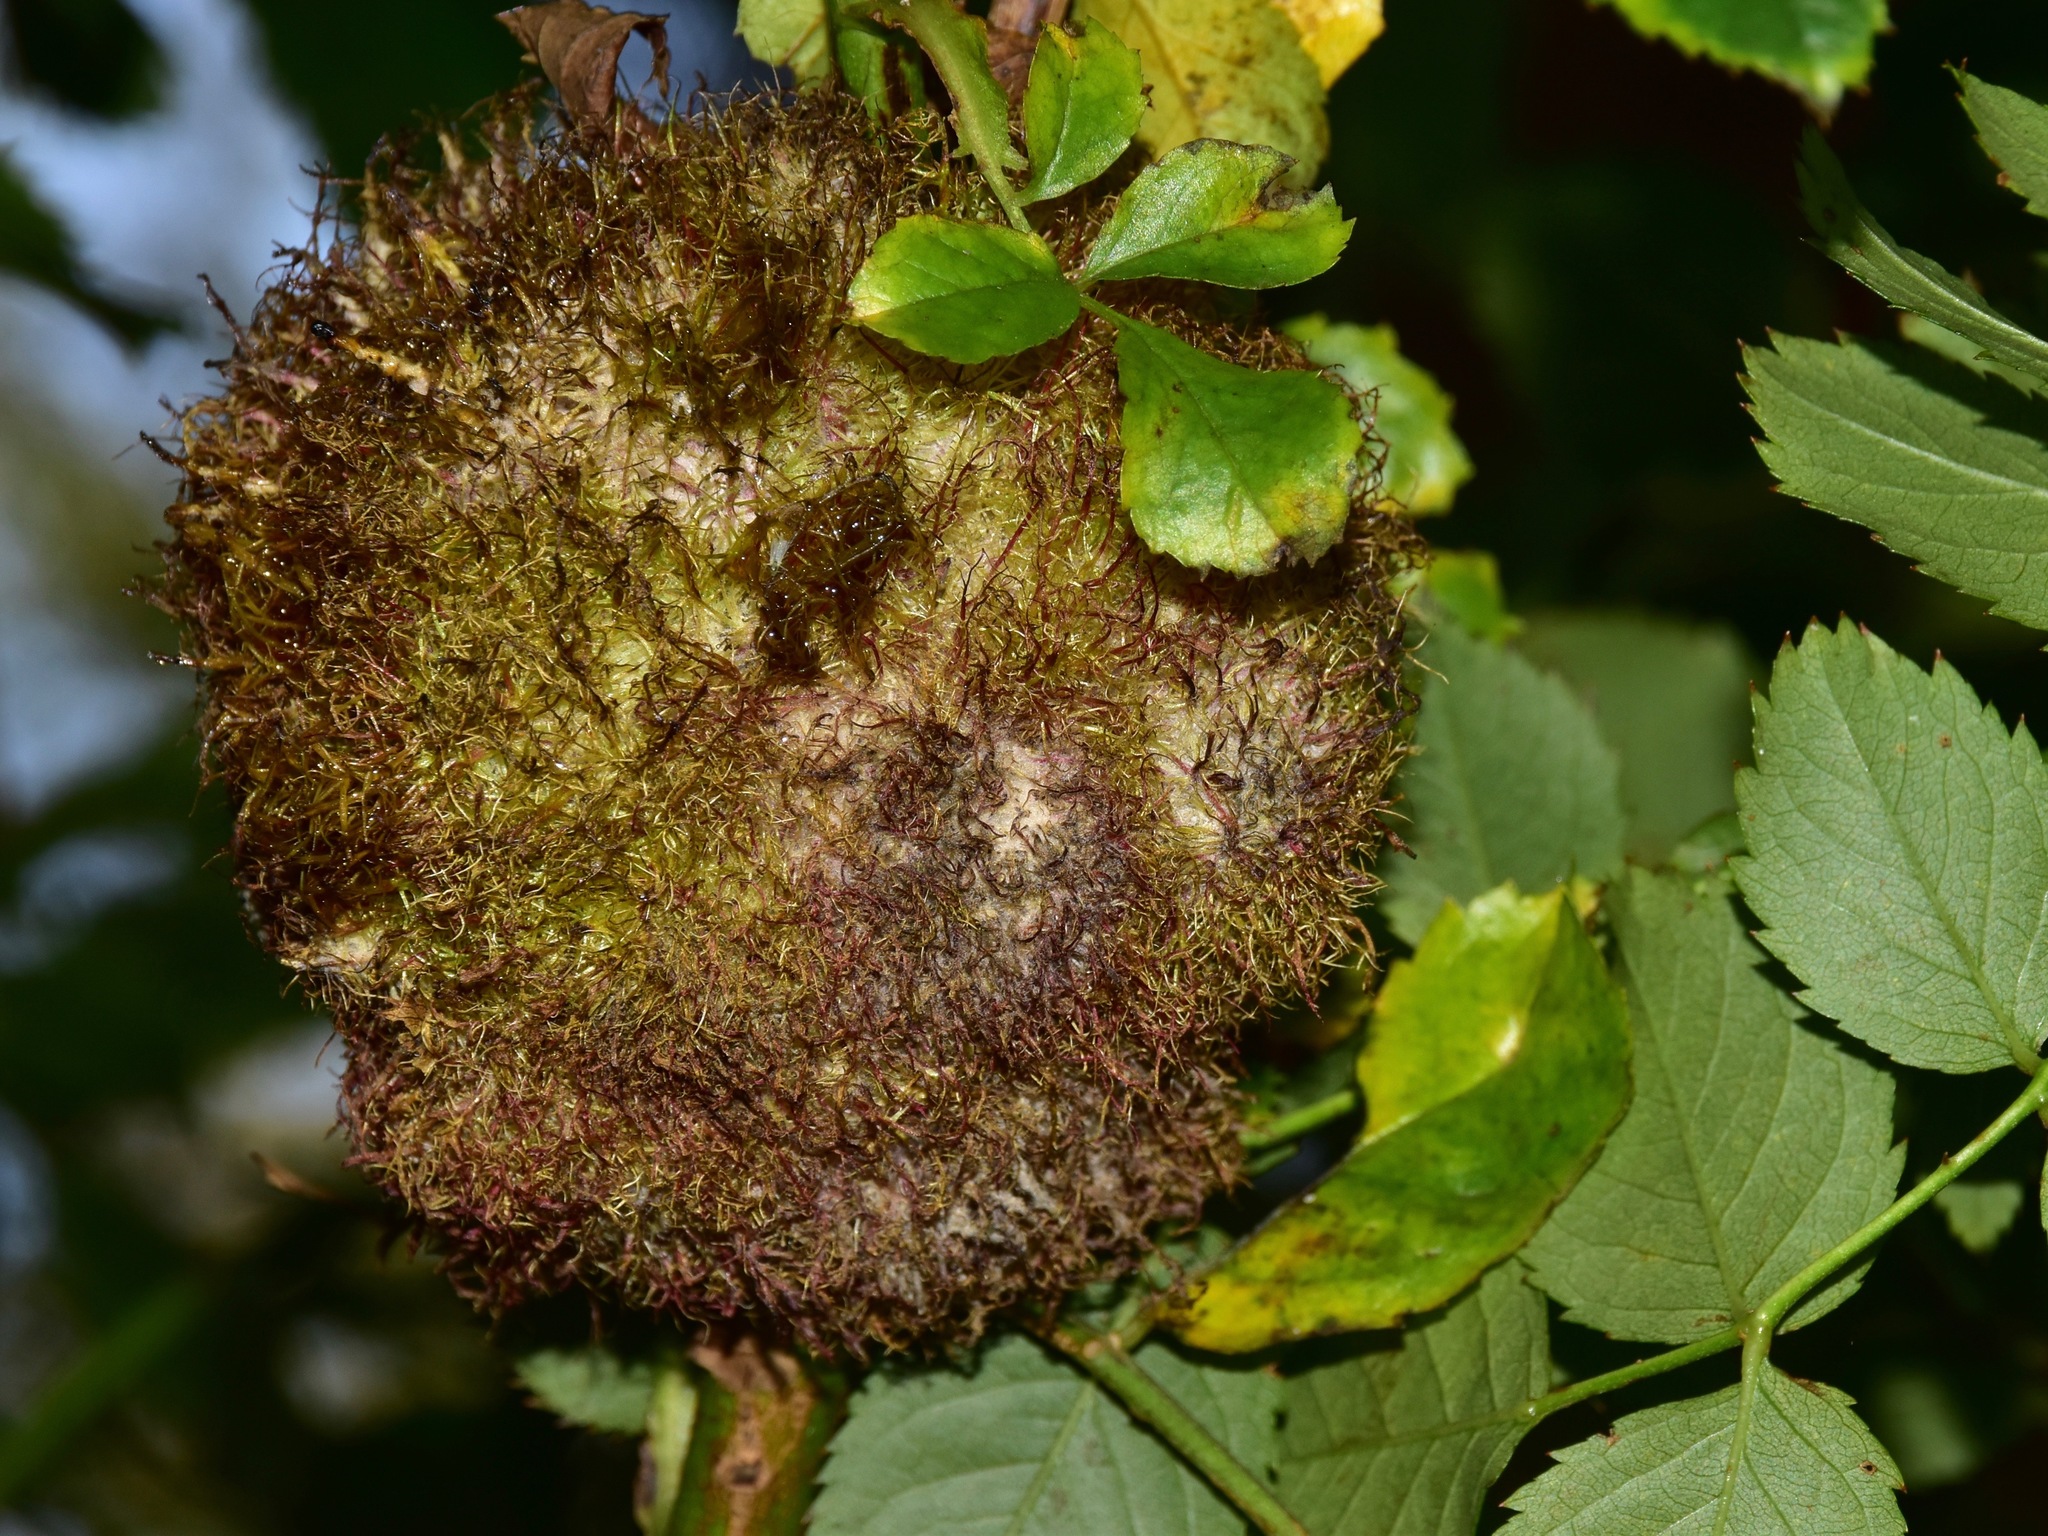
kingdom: Animalia
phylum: Arthropoda
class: Insecta
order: Hymenoptera
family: Cynipidae
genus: Diplolepis
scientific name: Diplolepis rosae
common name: Bedeguar gall
